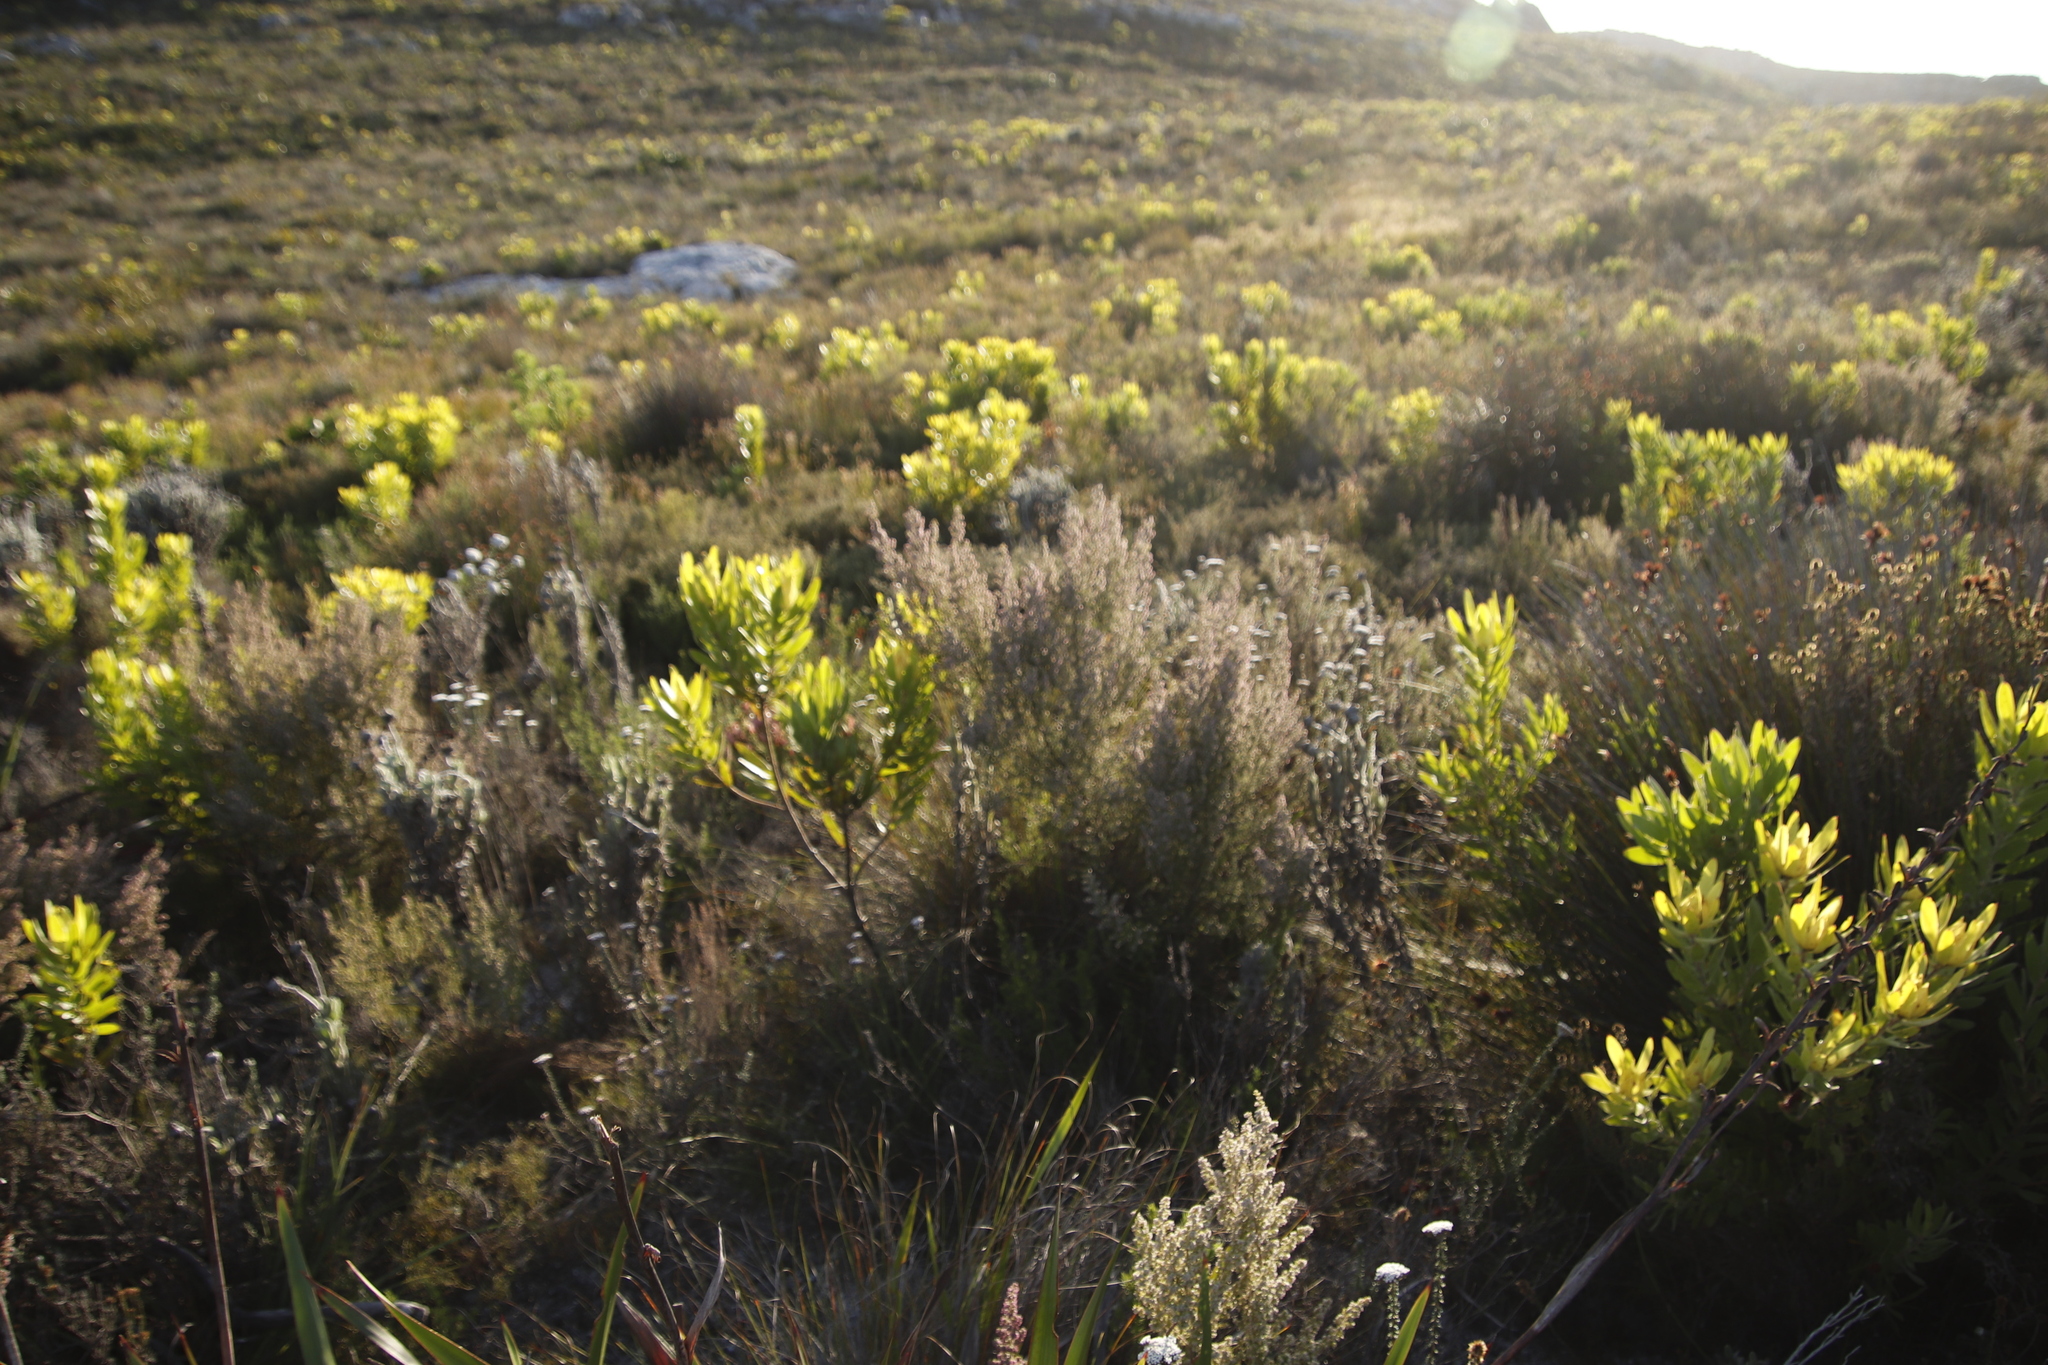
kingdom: Plantae
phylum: Tracheophyta
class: Magnoliopsida
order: Ericales
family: Ericaceae
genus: Erica
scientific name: Erica hispidula
